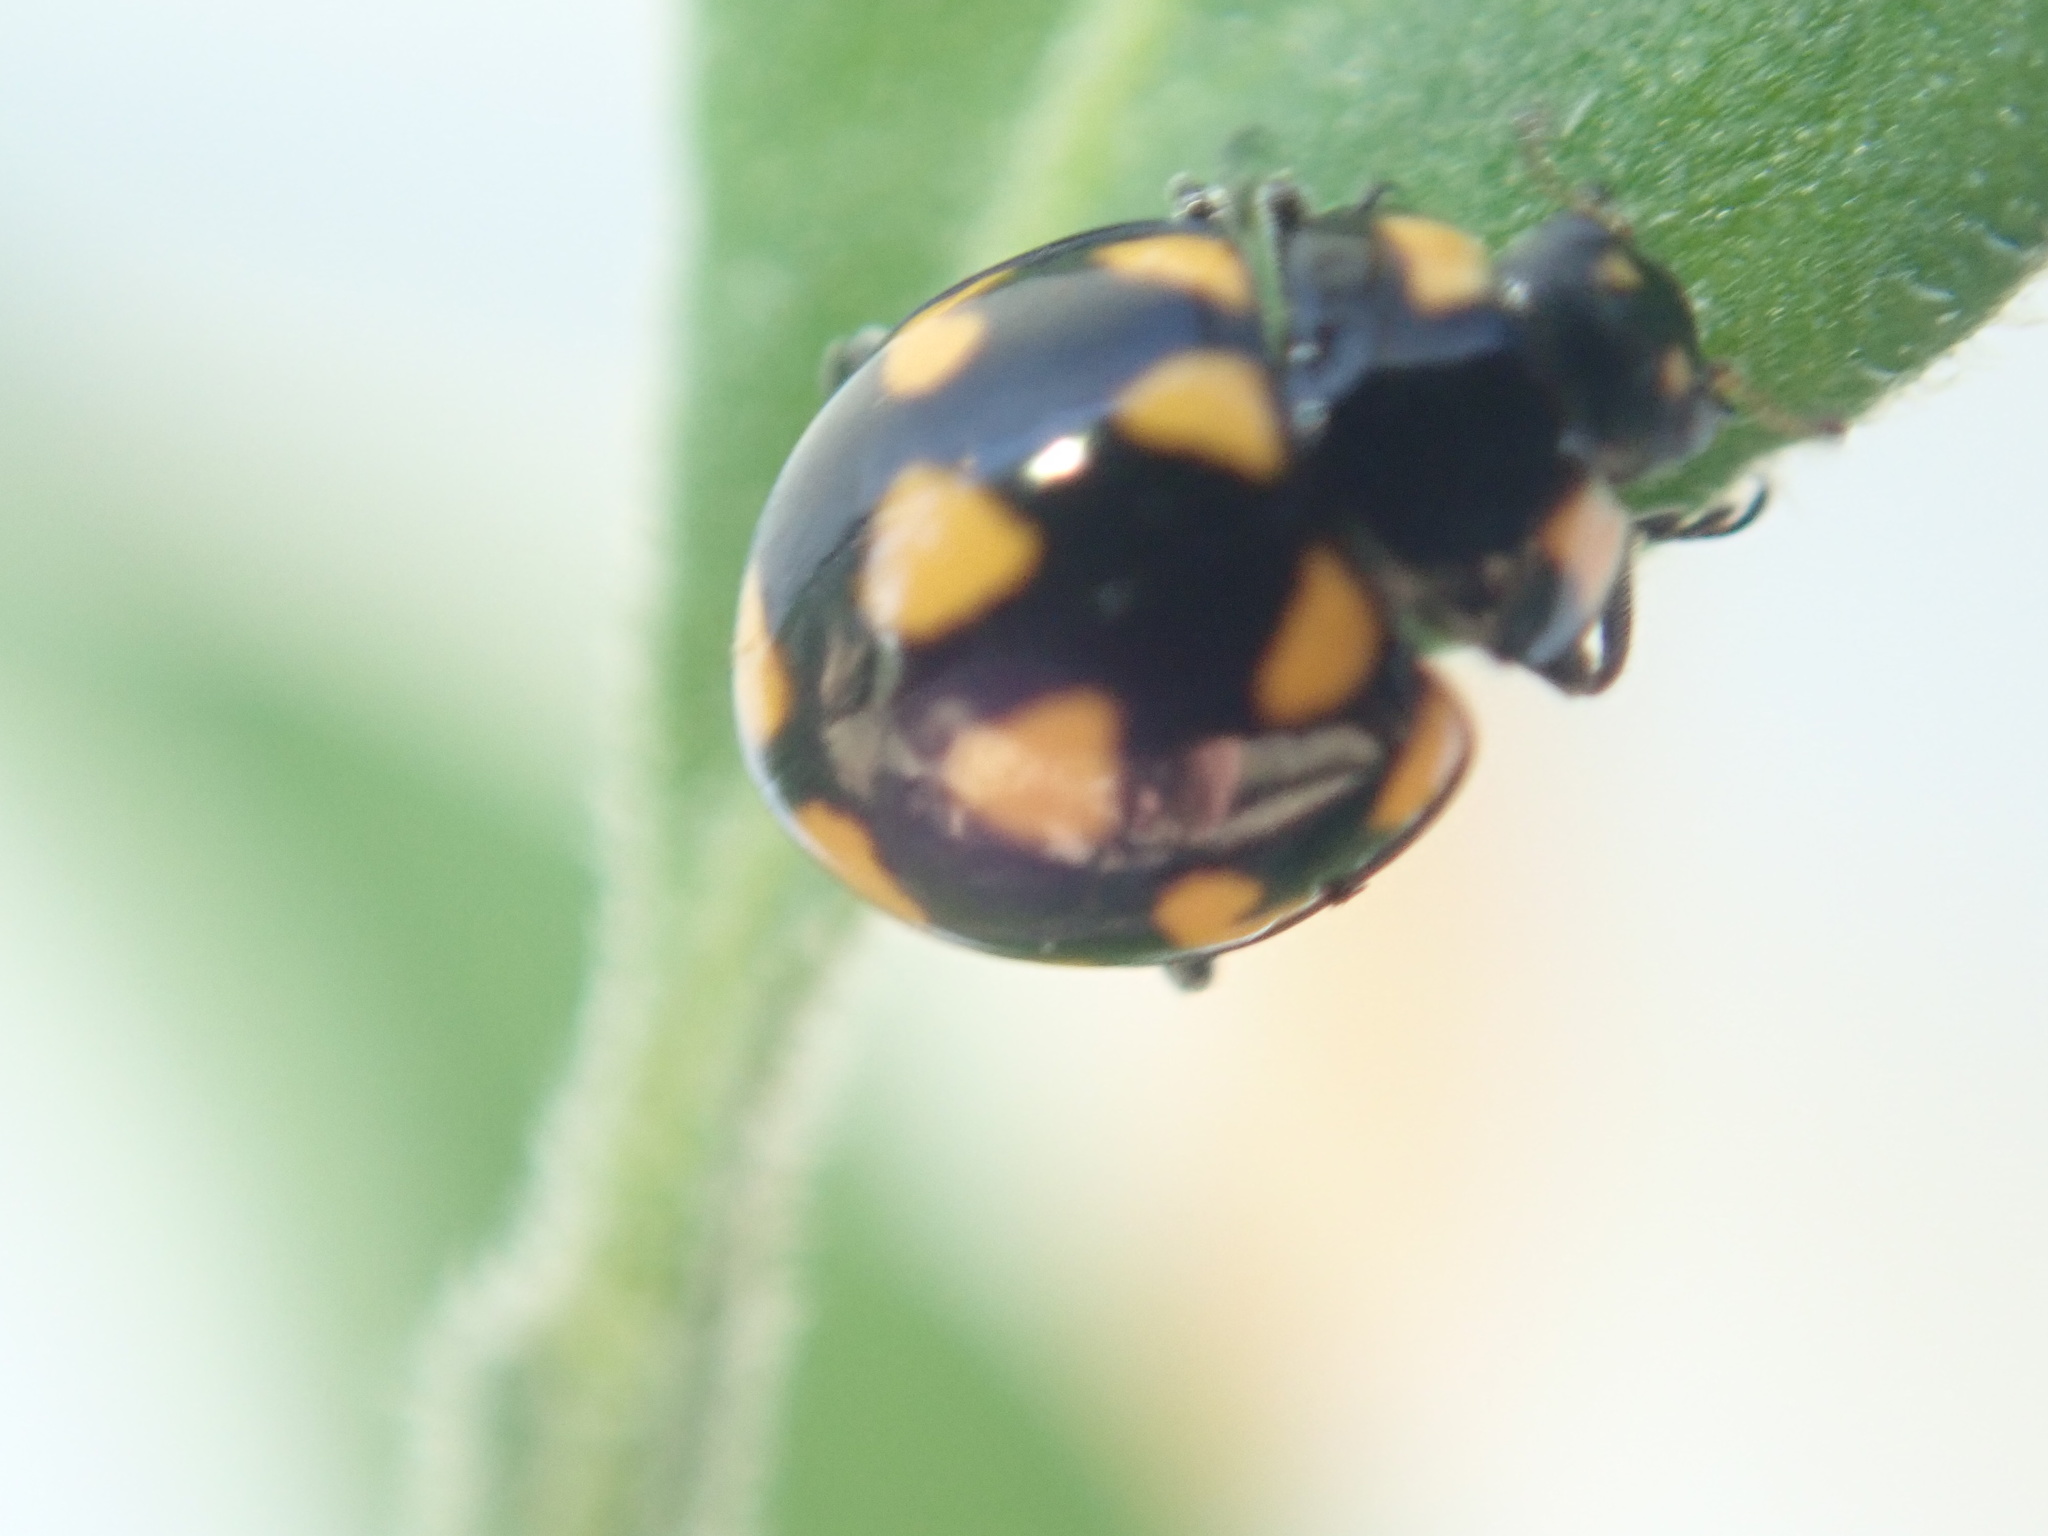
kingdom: Animalia
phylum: Arthropoda
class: Insecta
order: Coleoptera
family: Coccinellidae
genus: Coccinella
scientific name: Coccinella leonina
